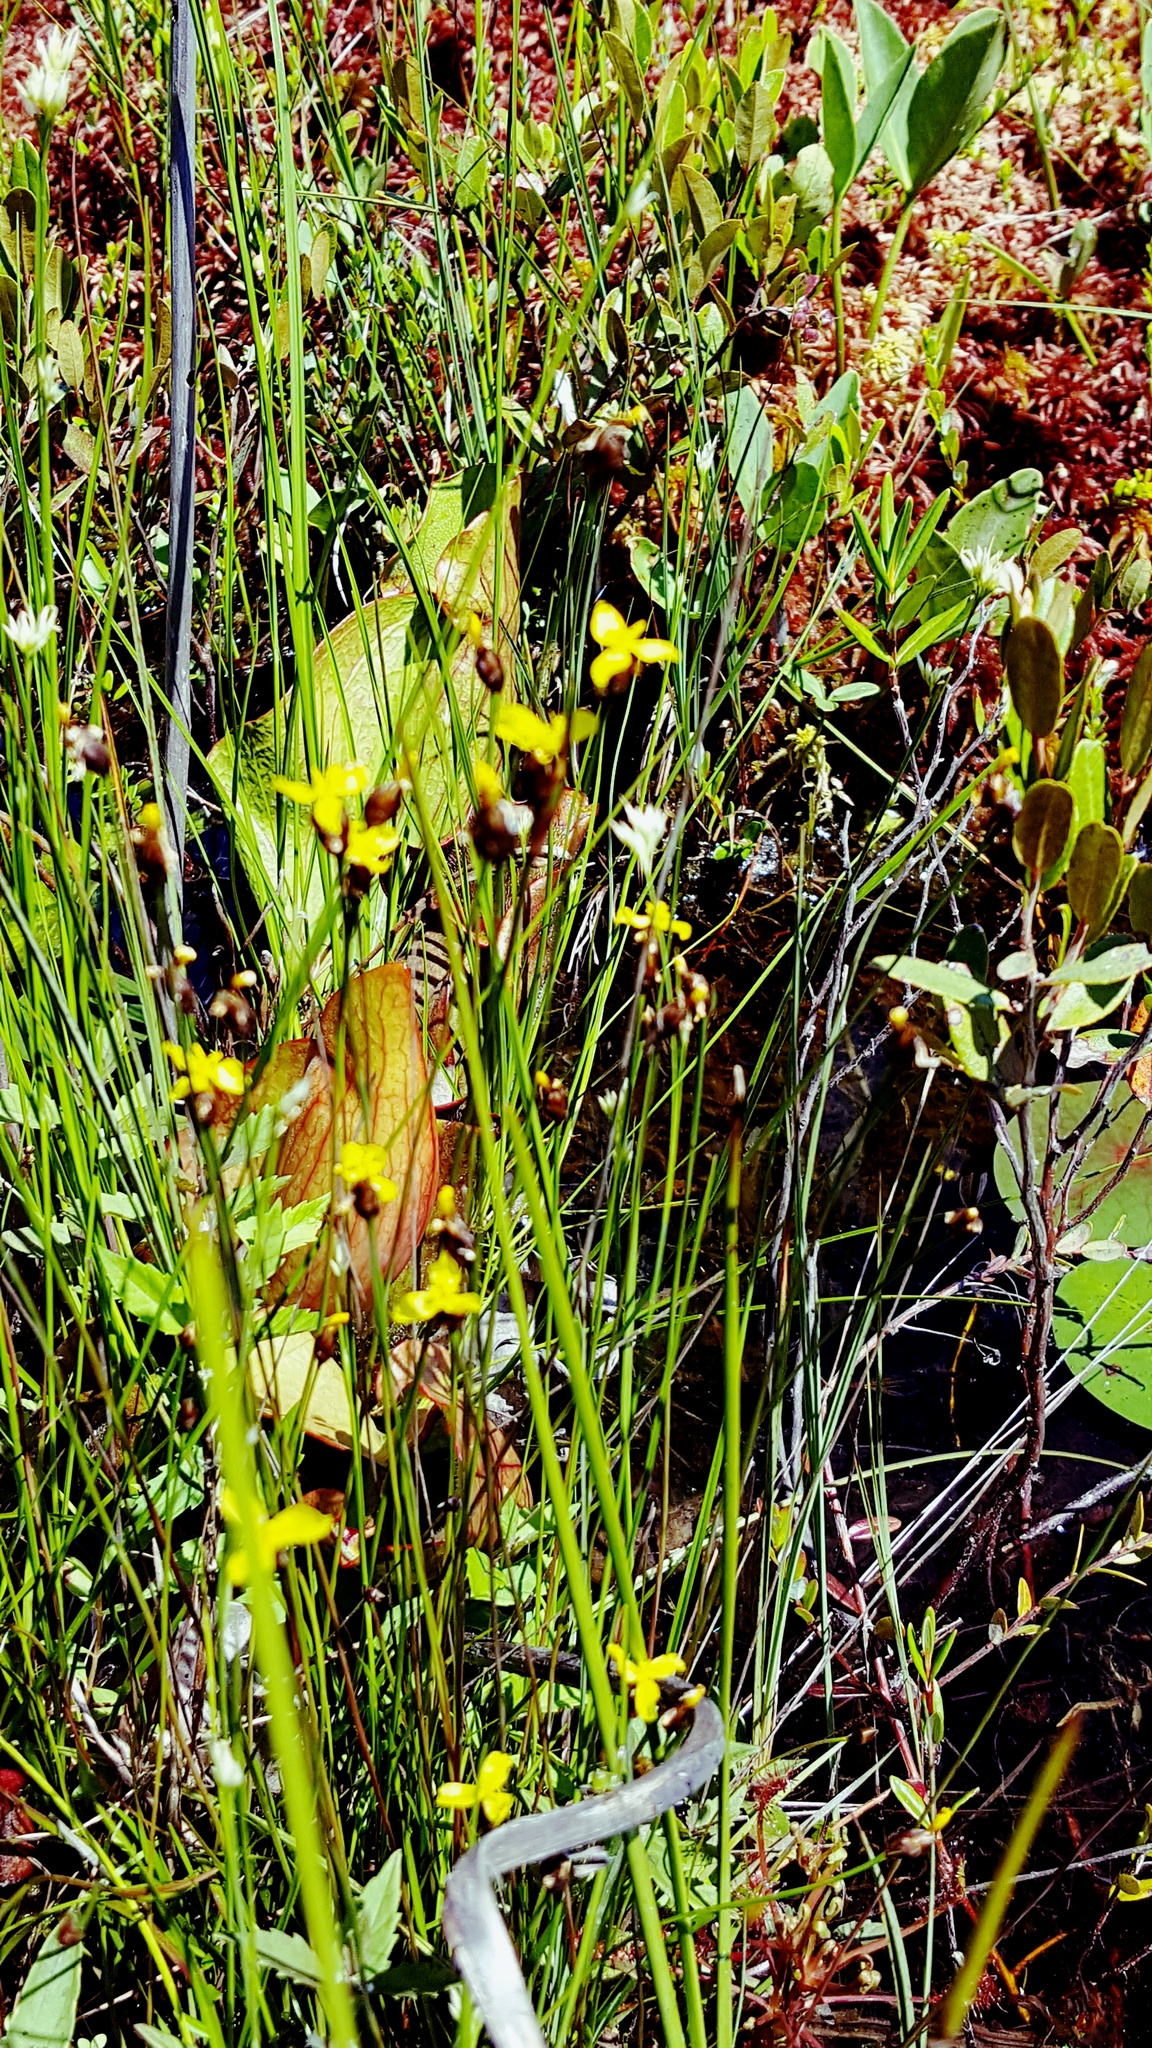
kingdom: Plantae
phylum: Tracheophyta
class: Liliopsida
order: Poales
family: Xyridaceae
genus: Xyris
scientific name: Xyris montana
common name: Northern yellow-eyed-grass
